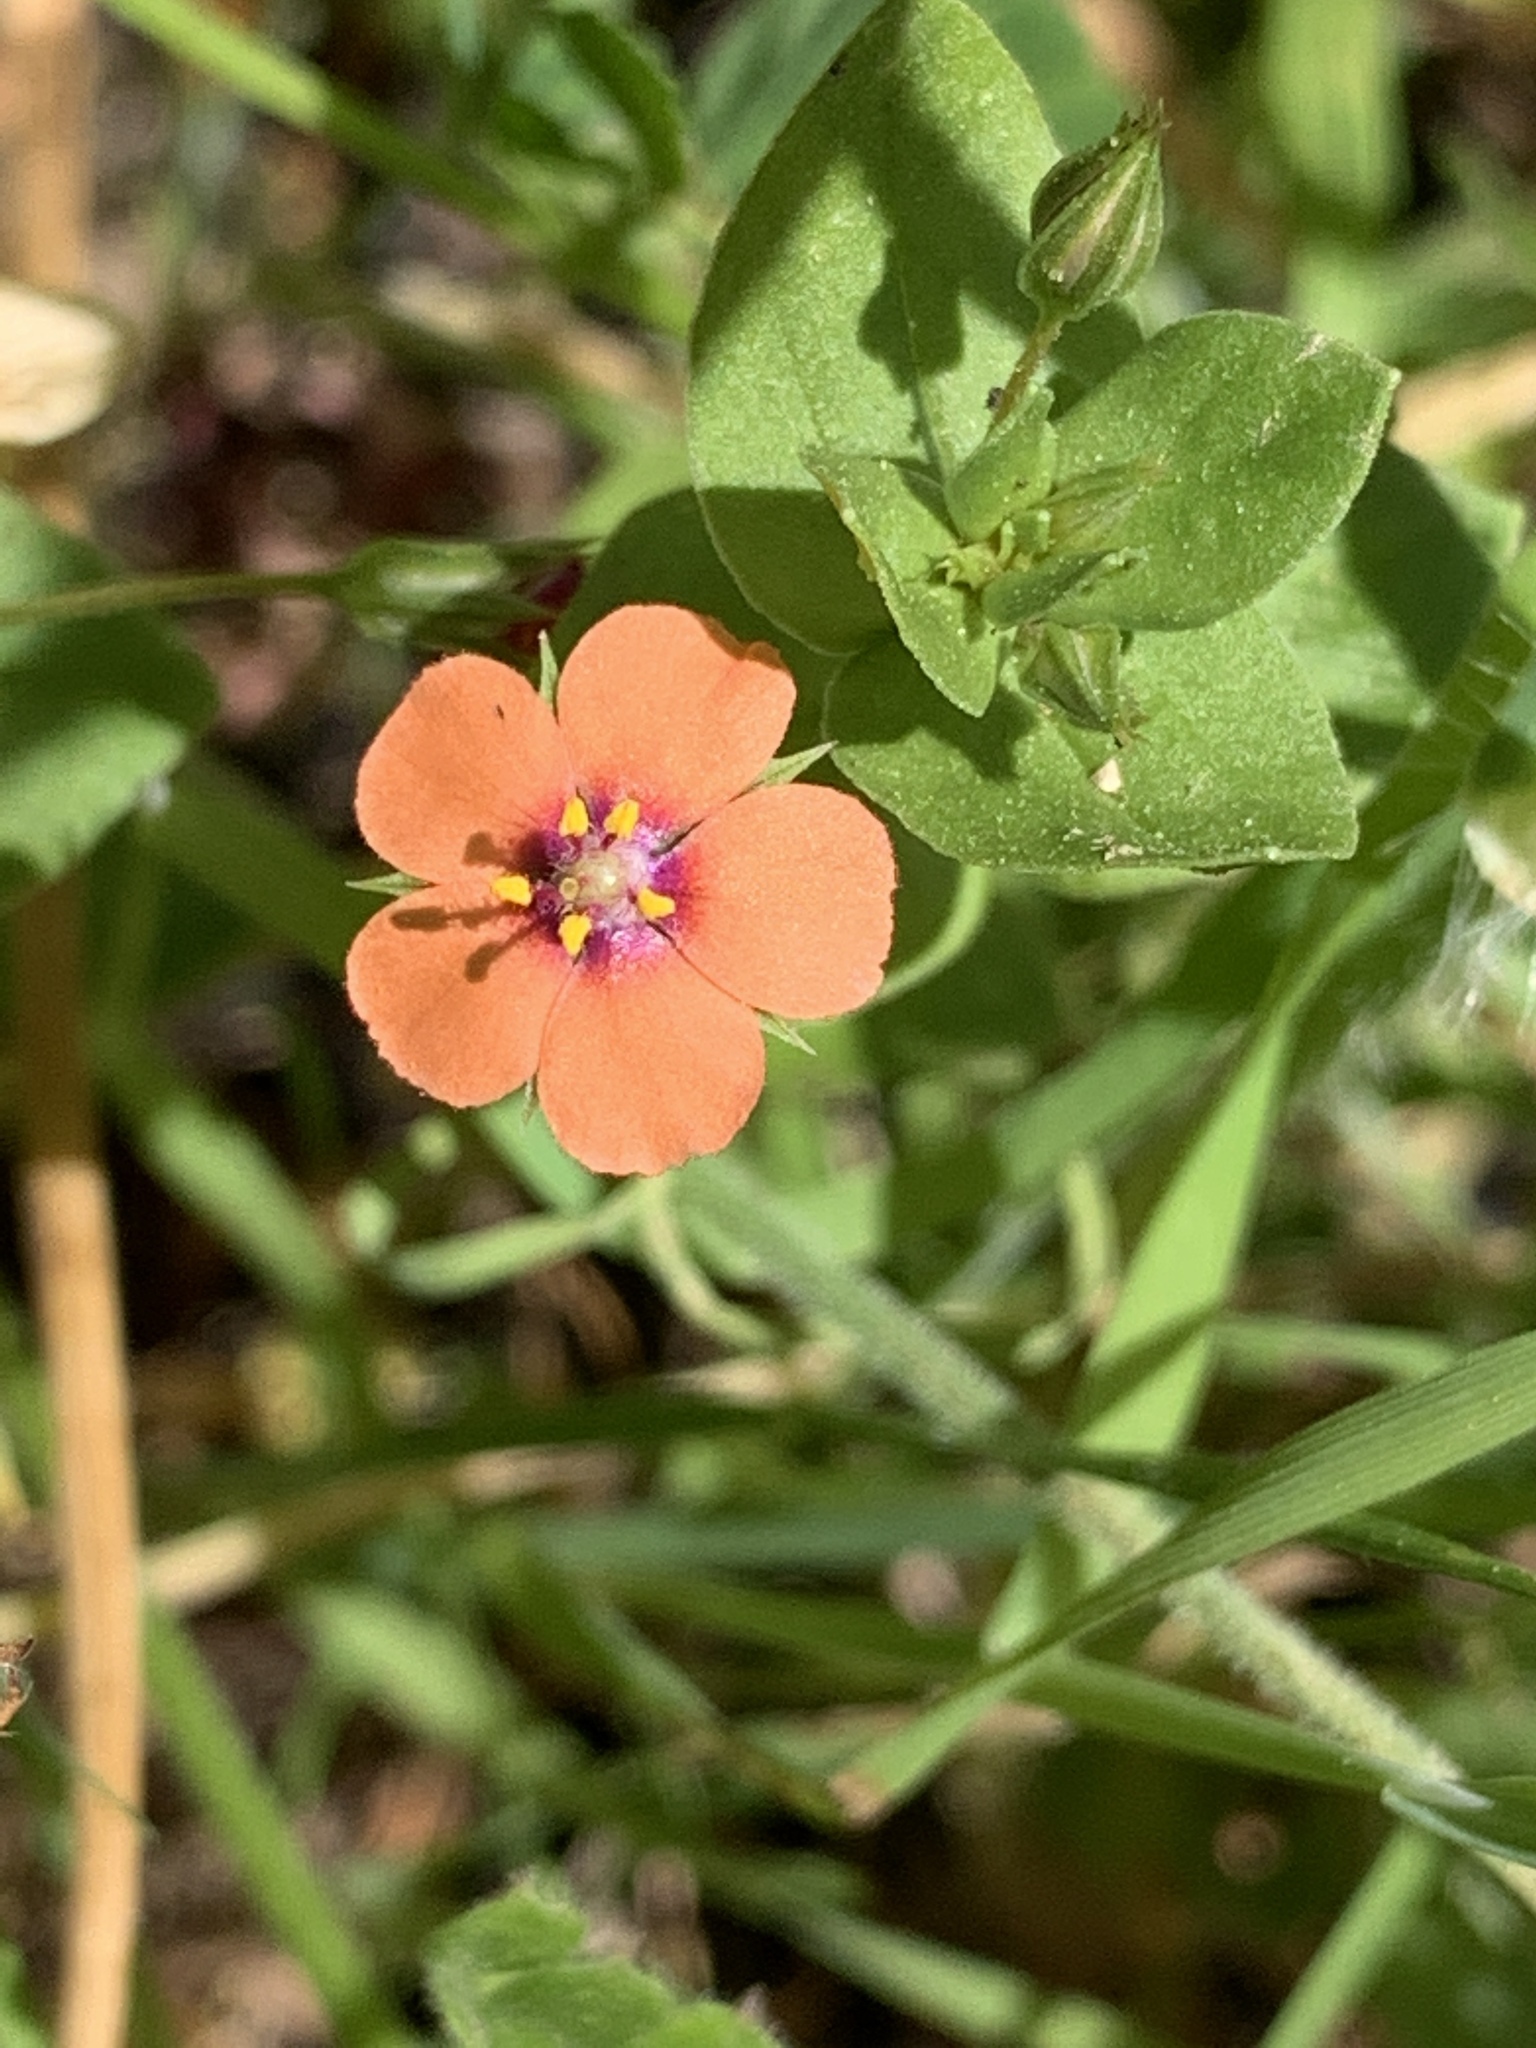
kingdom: Plantae
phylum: Tracheophyta
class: Magnoliopsida
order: Ericales
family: Primulaceae
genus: Lysimachia
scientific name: Lysimachia arvensis
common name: Scarlet pimpernel
